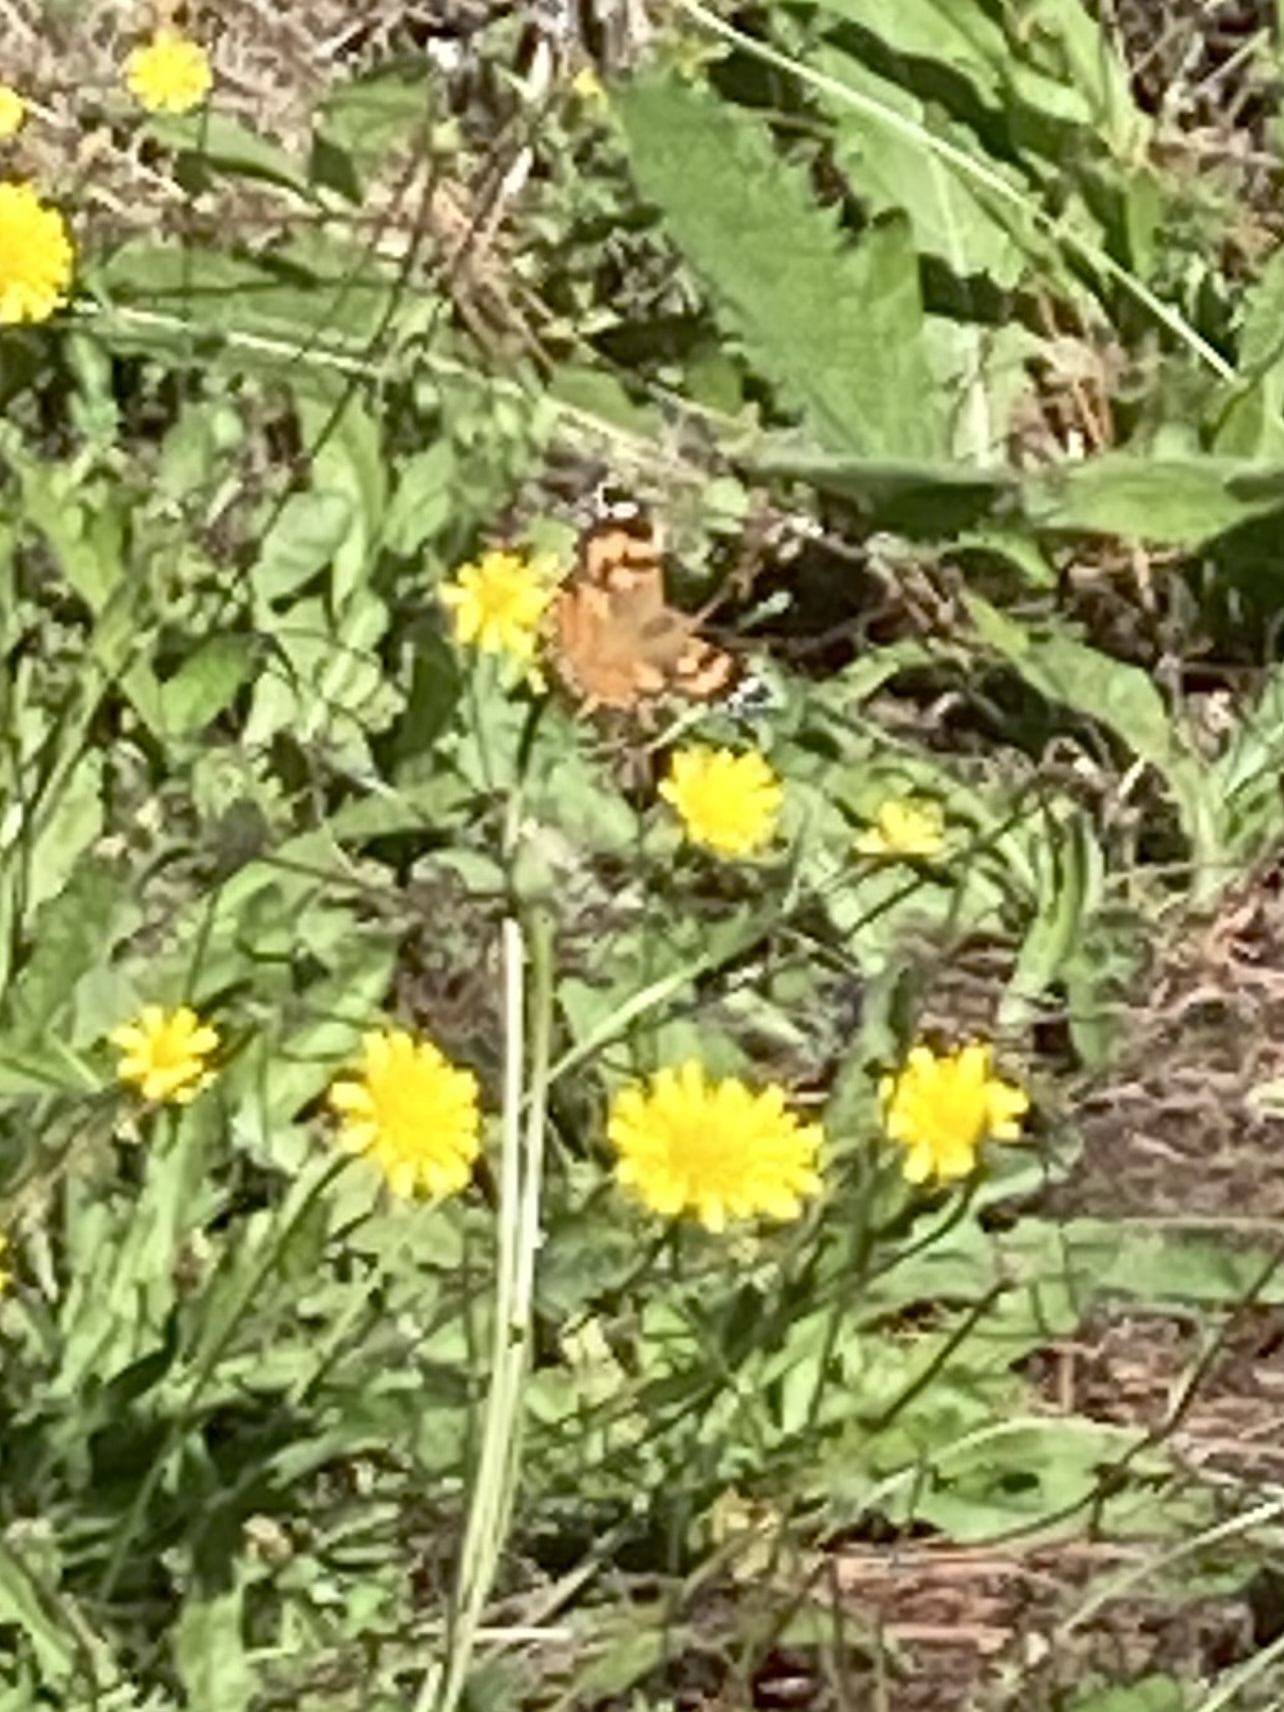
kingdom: Animalia
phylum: Arthropoda
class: Insecta
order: Lepidoptera
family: Nymphalidae
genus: Vanessa
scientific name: Vanessa kershawi
